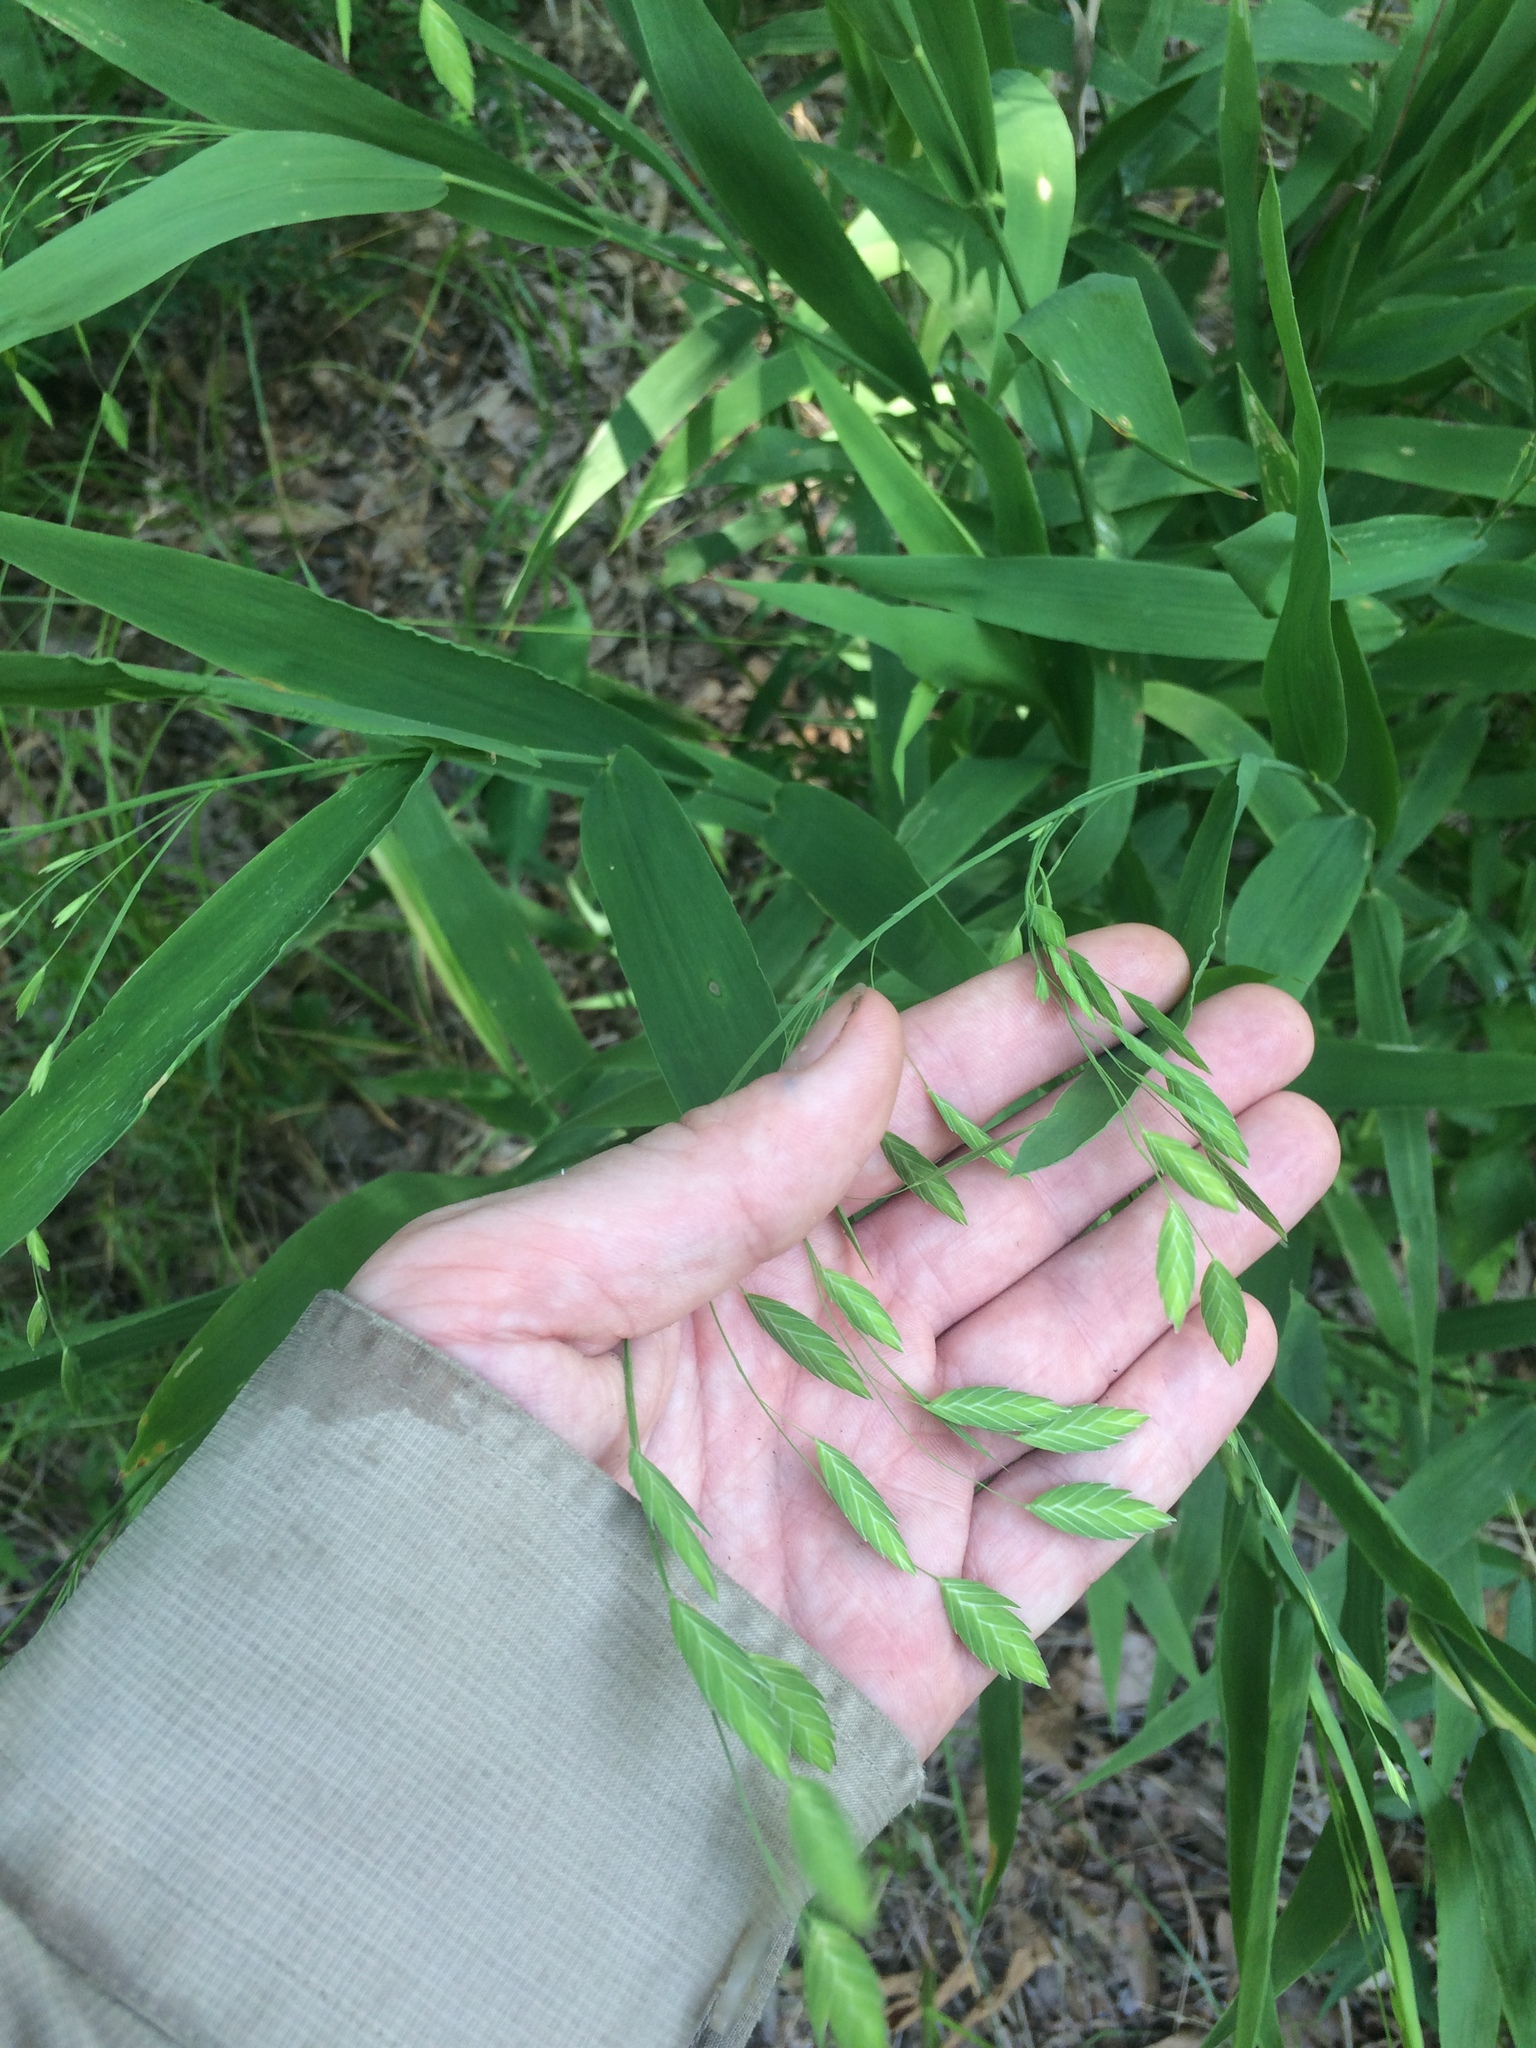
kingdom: Plantae
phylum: Tracheophyta
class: Liliopsida
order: Poales
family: Poaceae
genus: Chasmanthium
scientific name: Chasmanthium latifolium
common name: Broad-leaved chasmanthium
